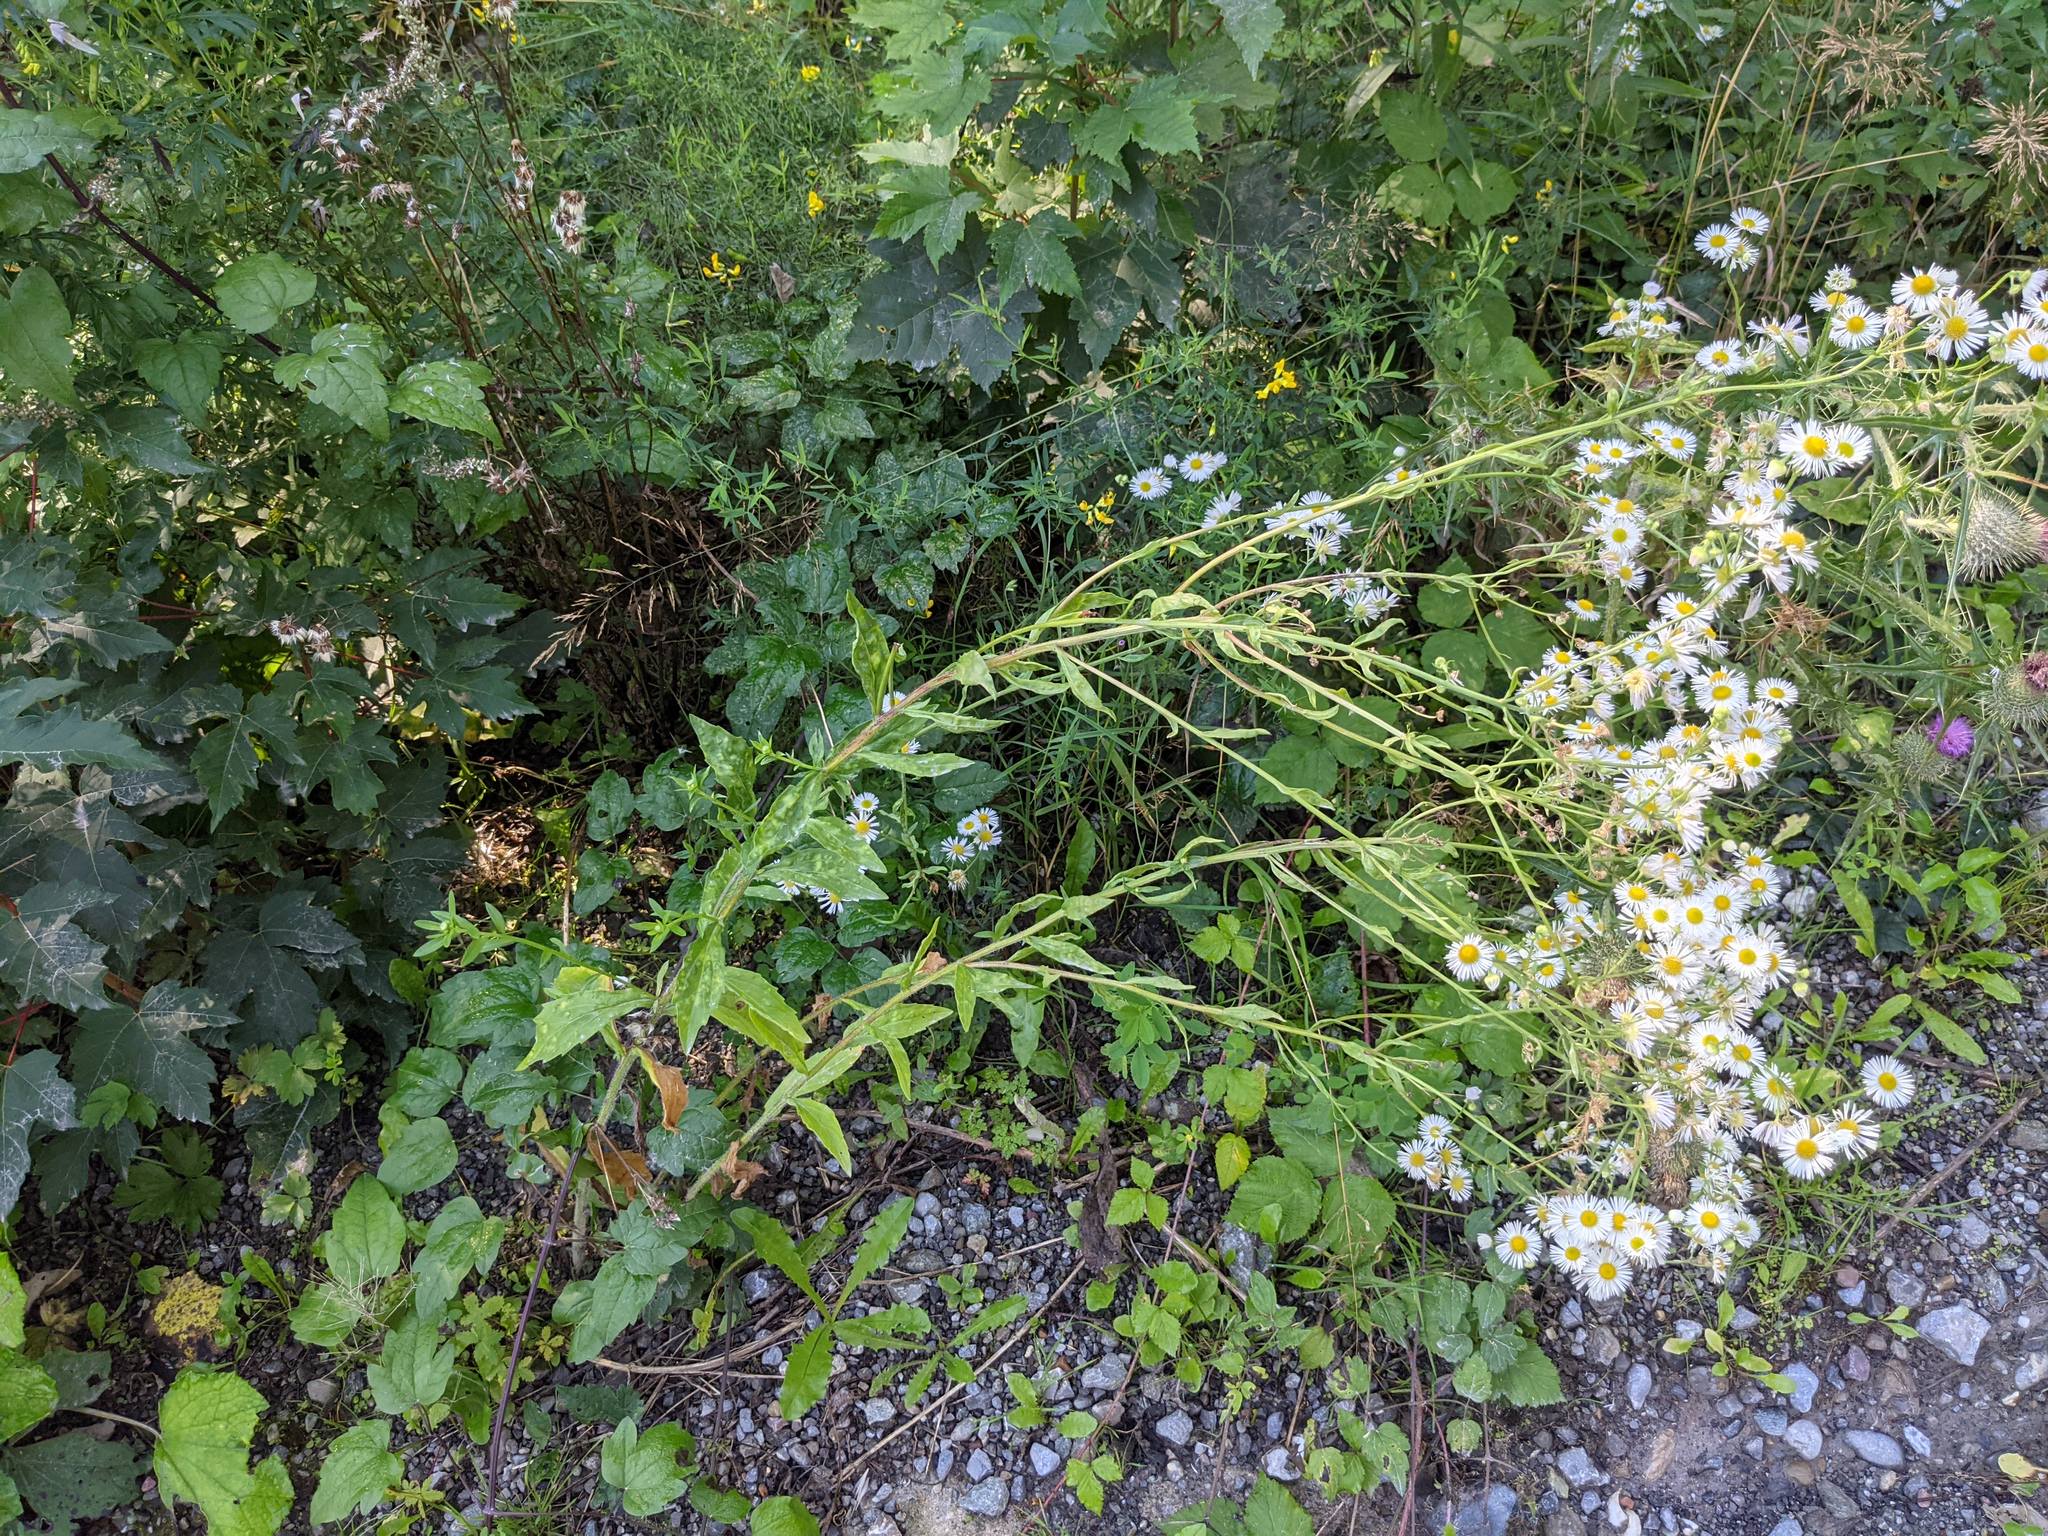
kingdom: Plantae
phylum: Tracheophyta
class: Magnoliopsida
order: Asterales
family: Asteraceae
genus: Erigeron
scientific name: Erigeron annuus
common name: Tall fleabane
